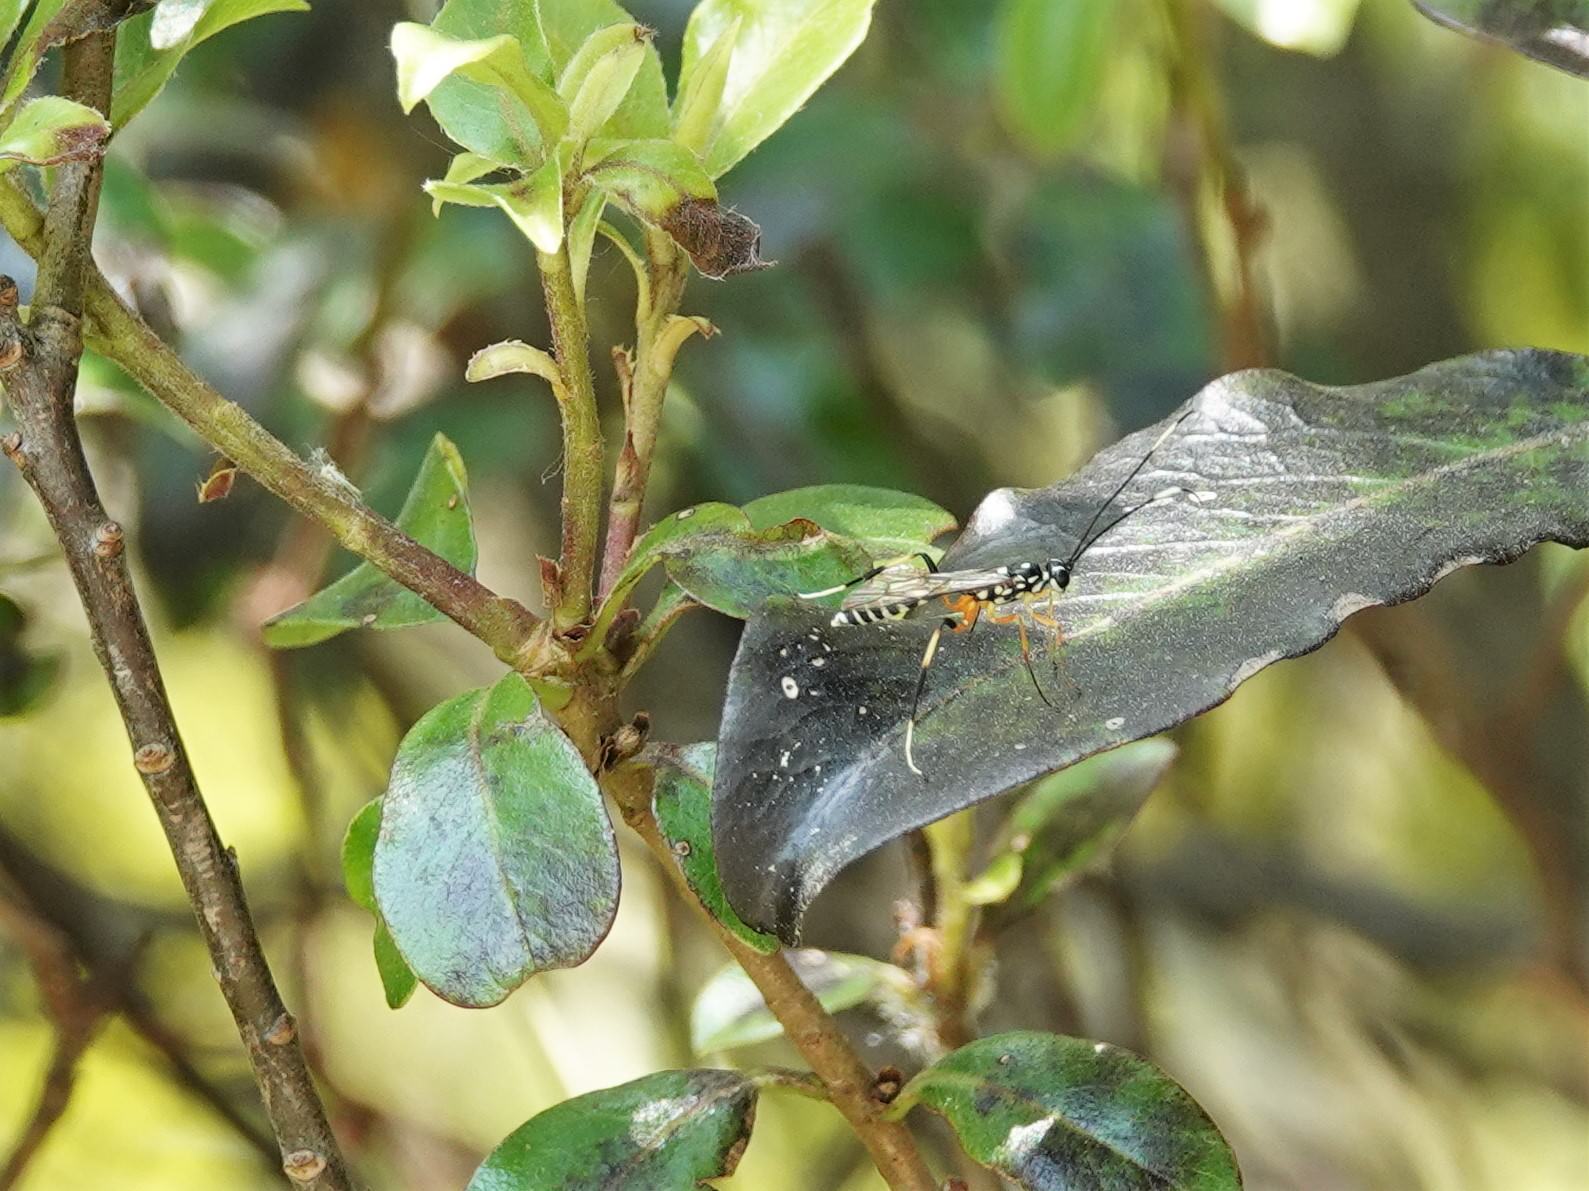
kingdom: Animalia
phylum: Arthropoda
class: Insecta
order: Hymenoptera
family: Ichneumonidae
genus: Xanthocryptus
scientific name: Xanthocryptus novozealandicus
